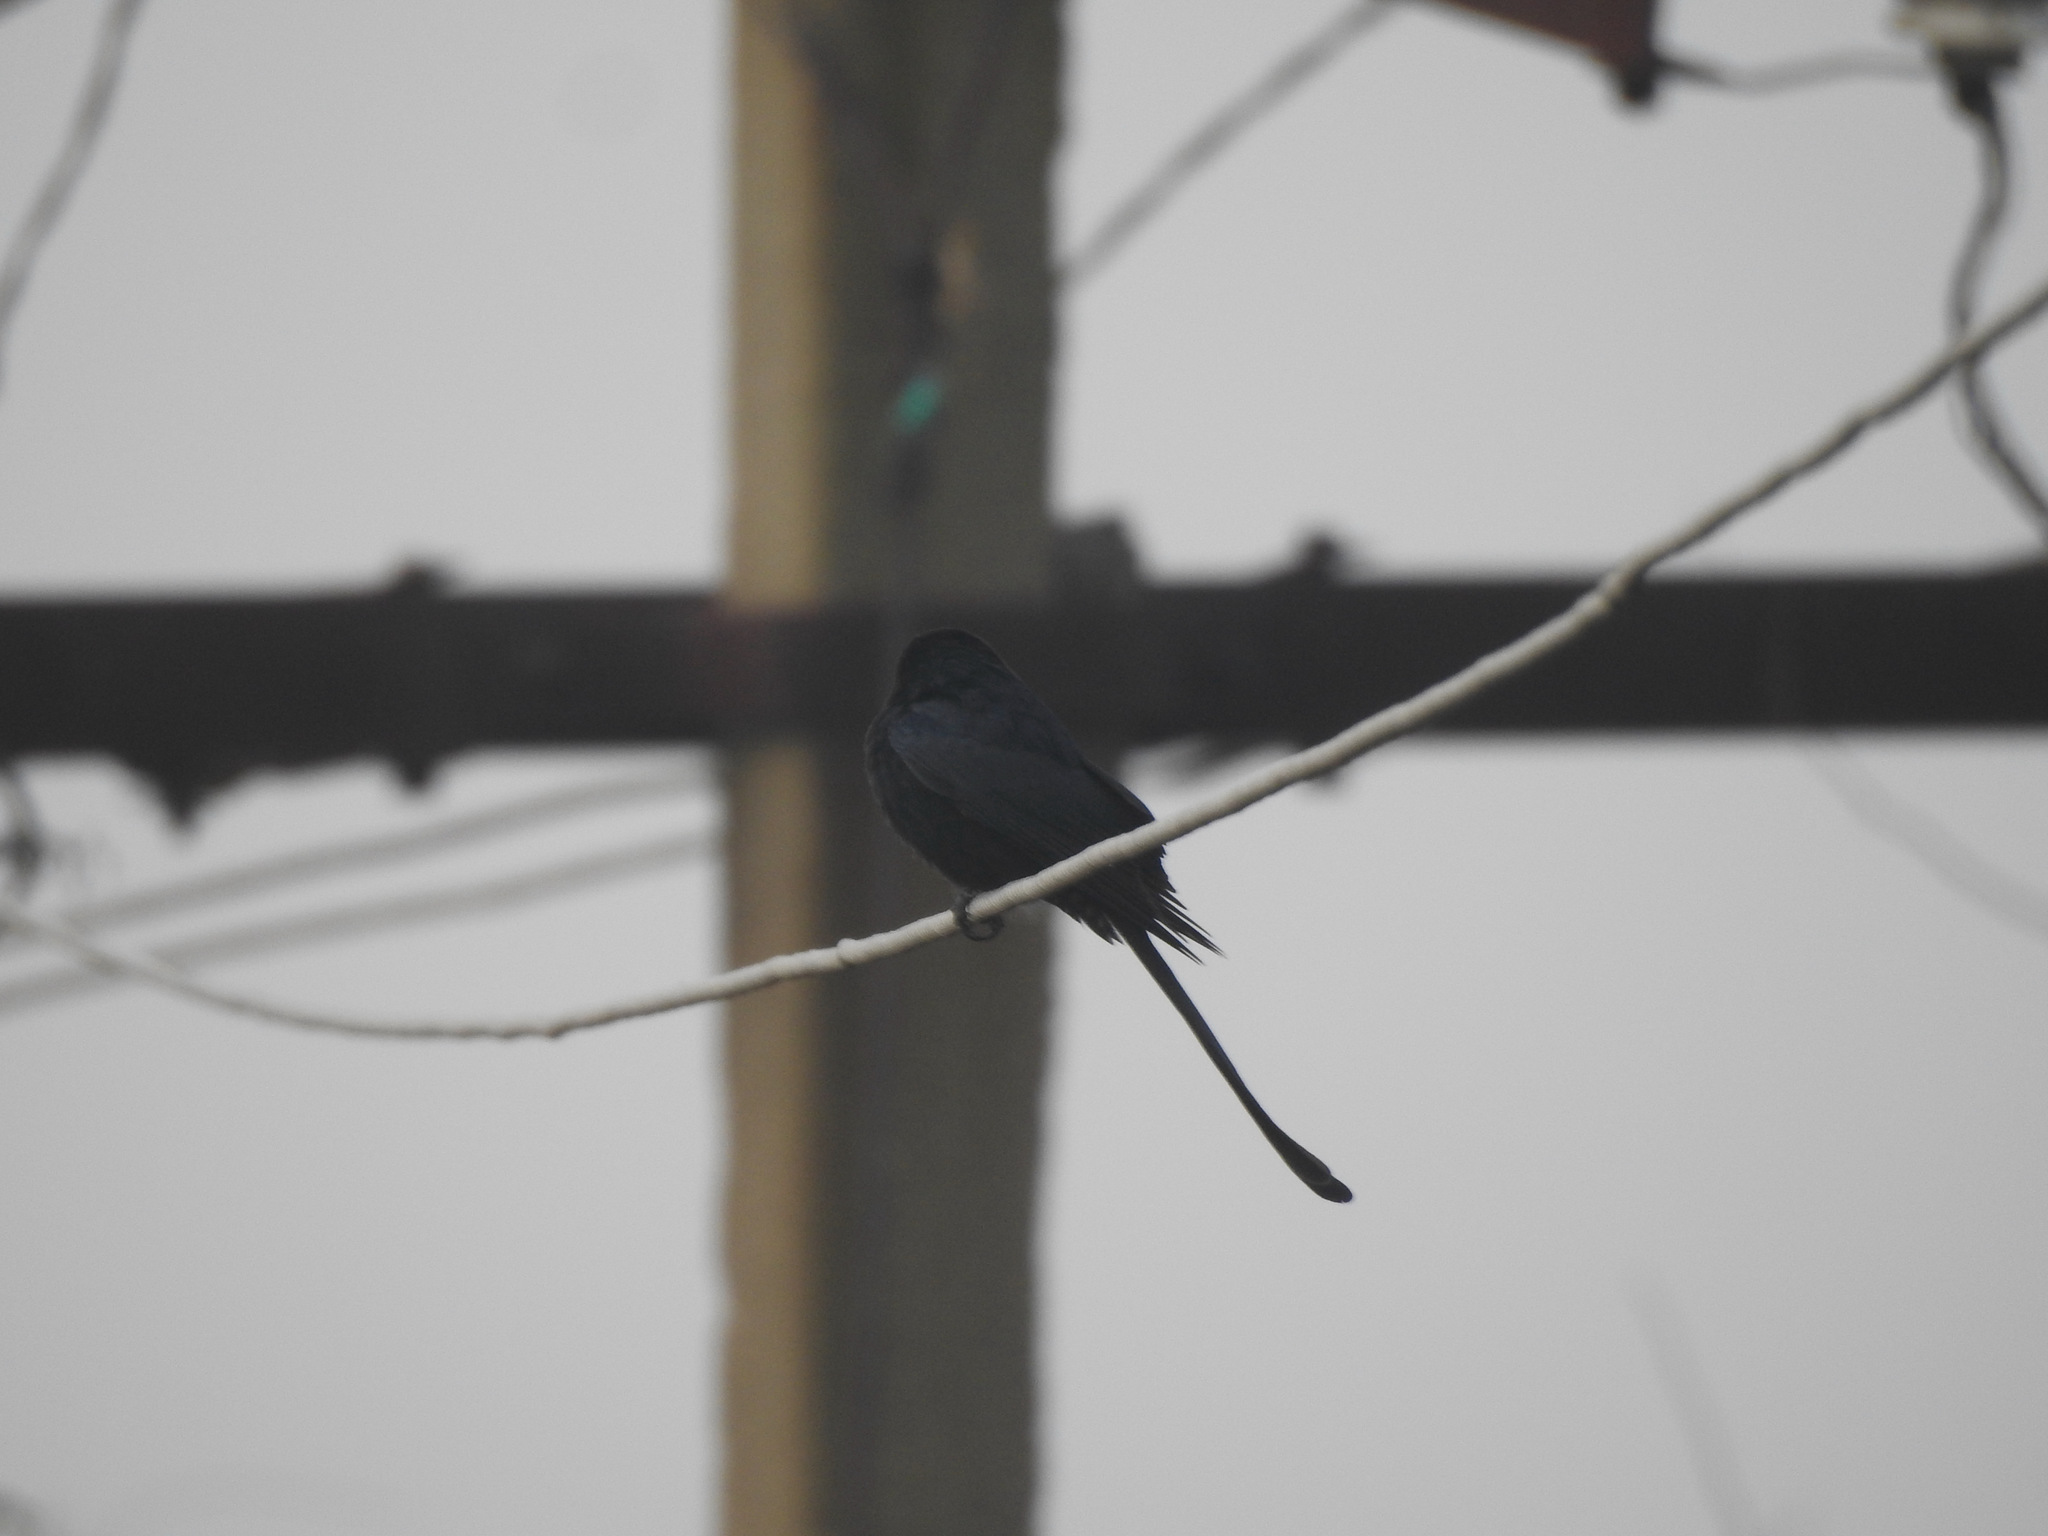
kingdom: Animalia
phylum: Chordata
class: Aves
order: Passeriformes
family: Dicruridae
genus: Dicrurus
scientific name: Dicrurus macrocercus
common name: Black drongo
